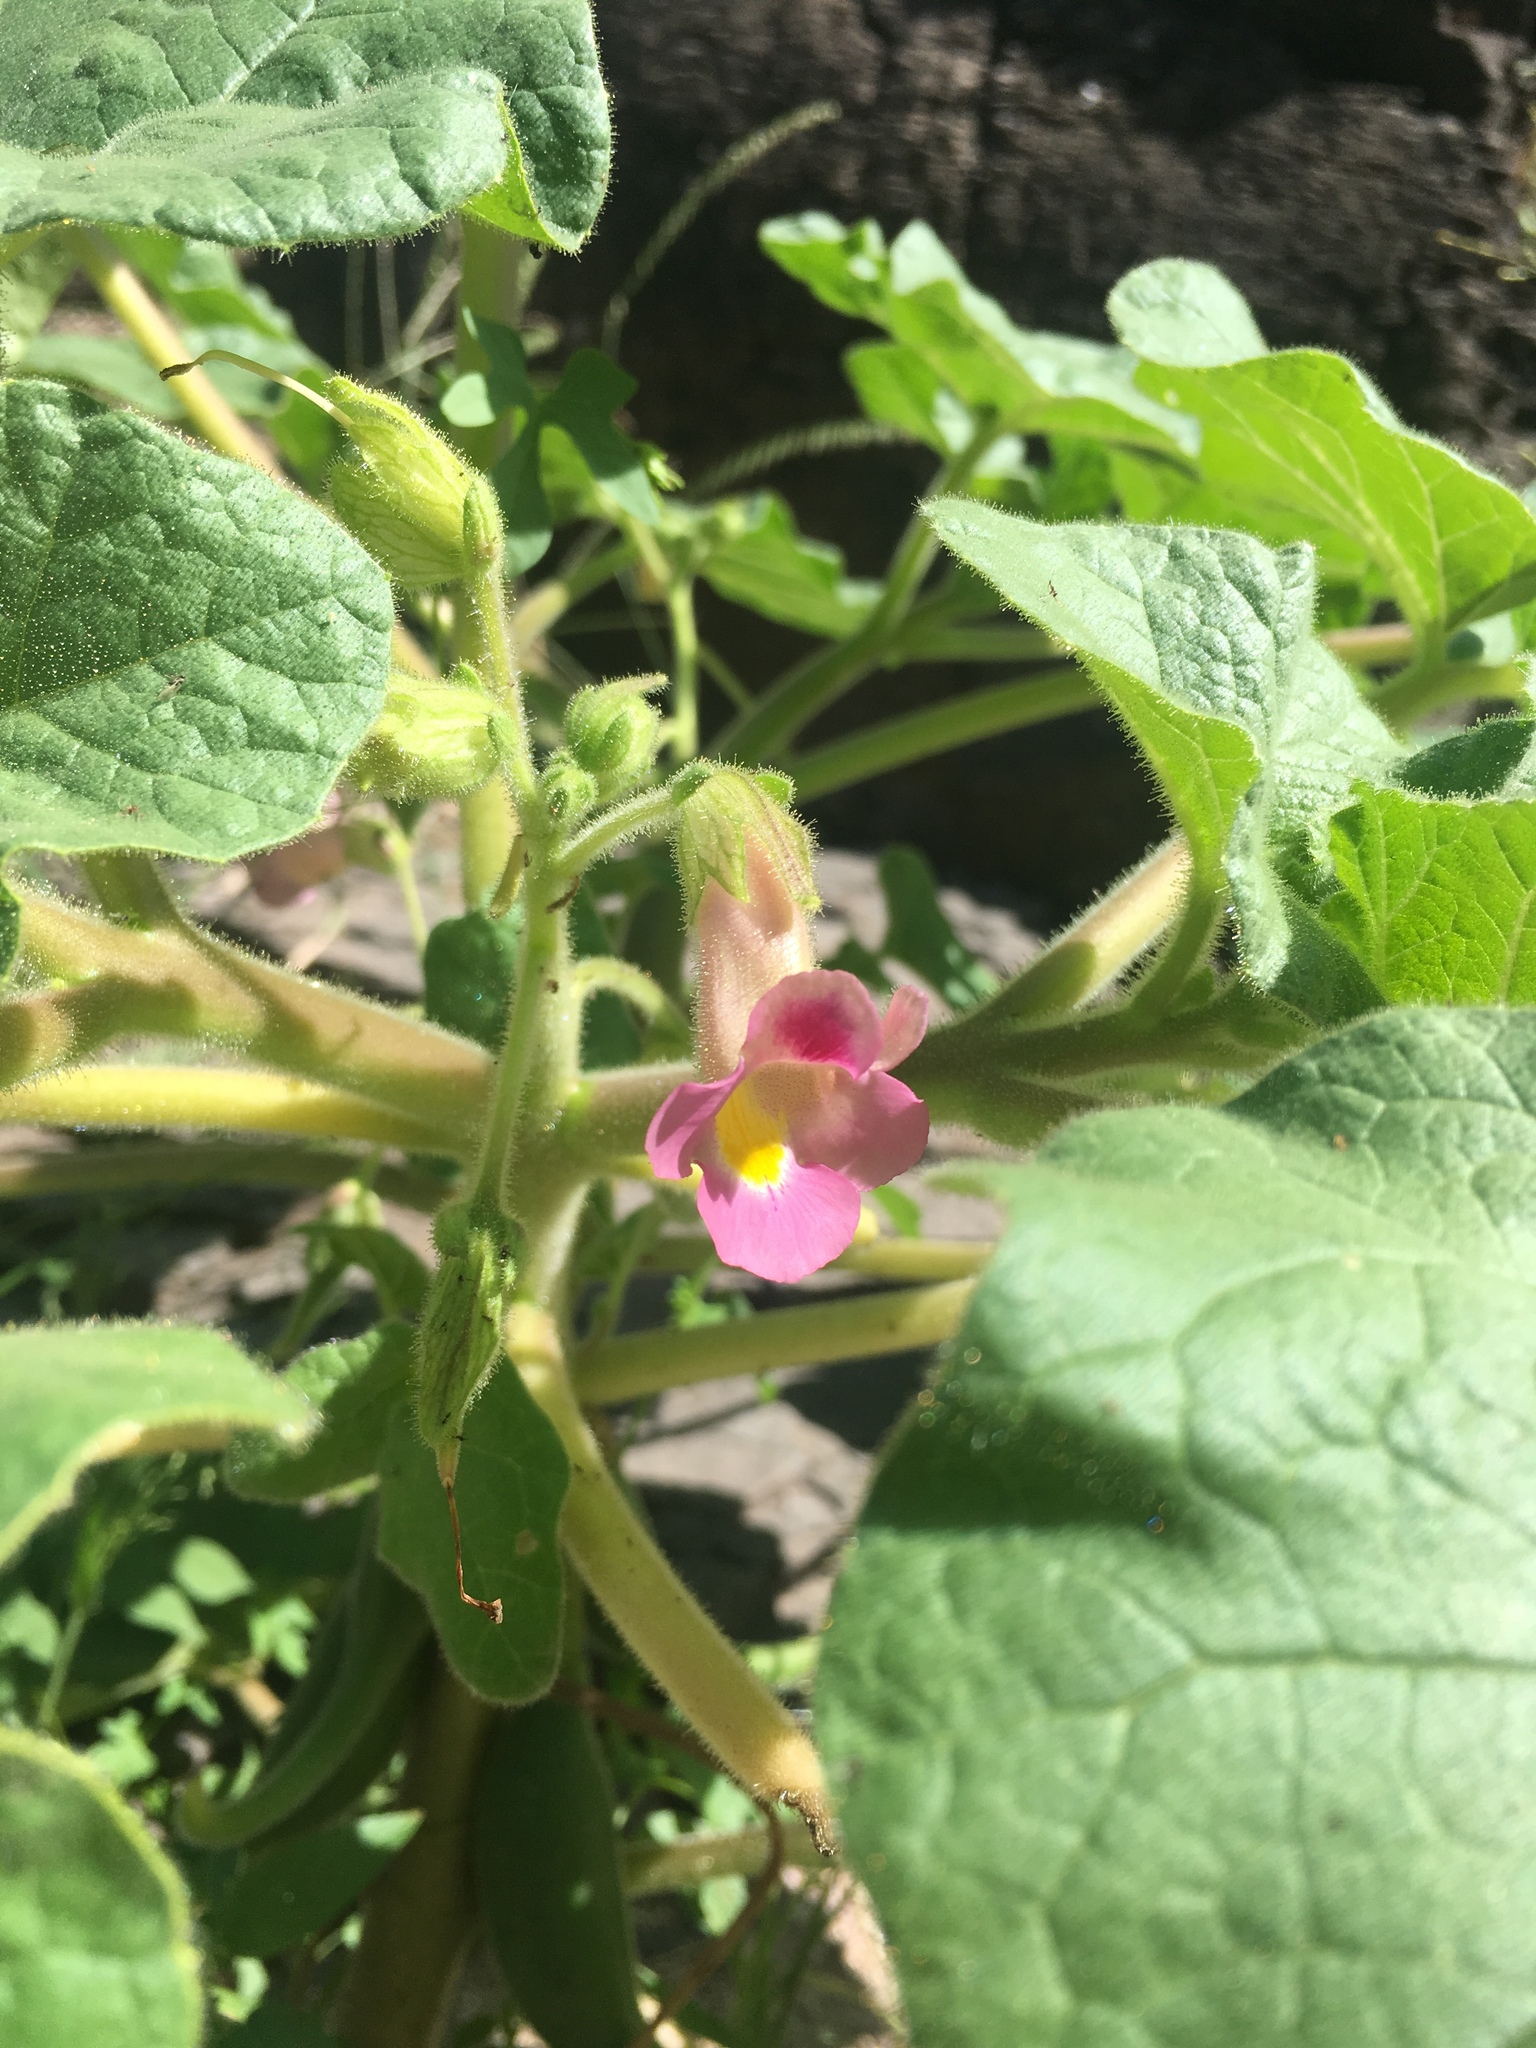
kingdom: Plantae
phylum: Tracheophyta
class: Magnoliopsida
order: Lamiales
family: Martyniaceae
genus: Proboscidea
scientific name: Proboscidea parviflora
